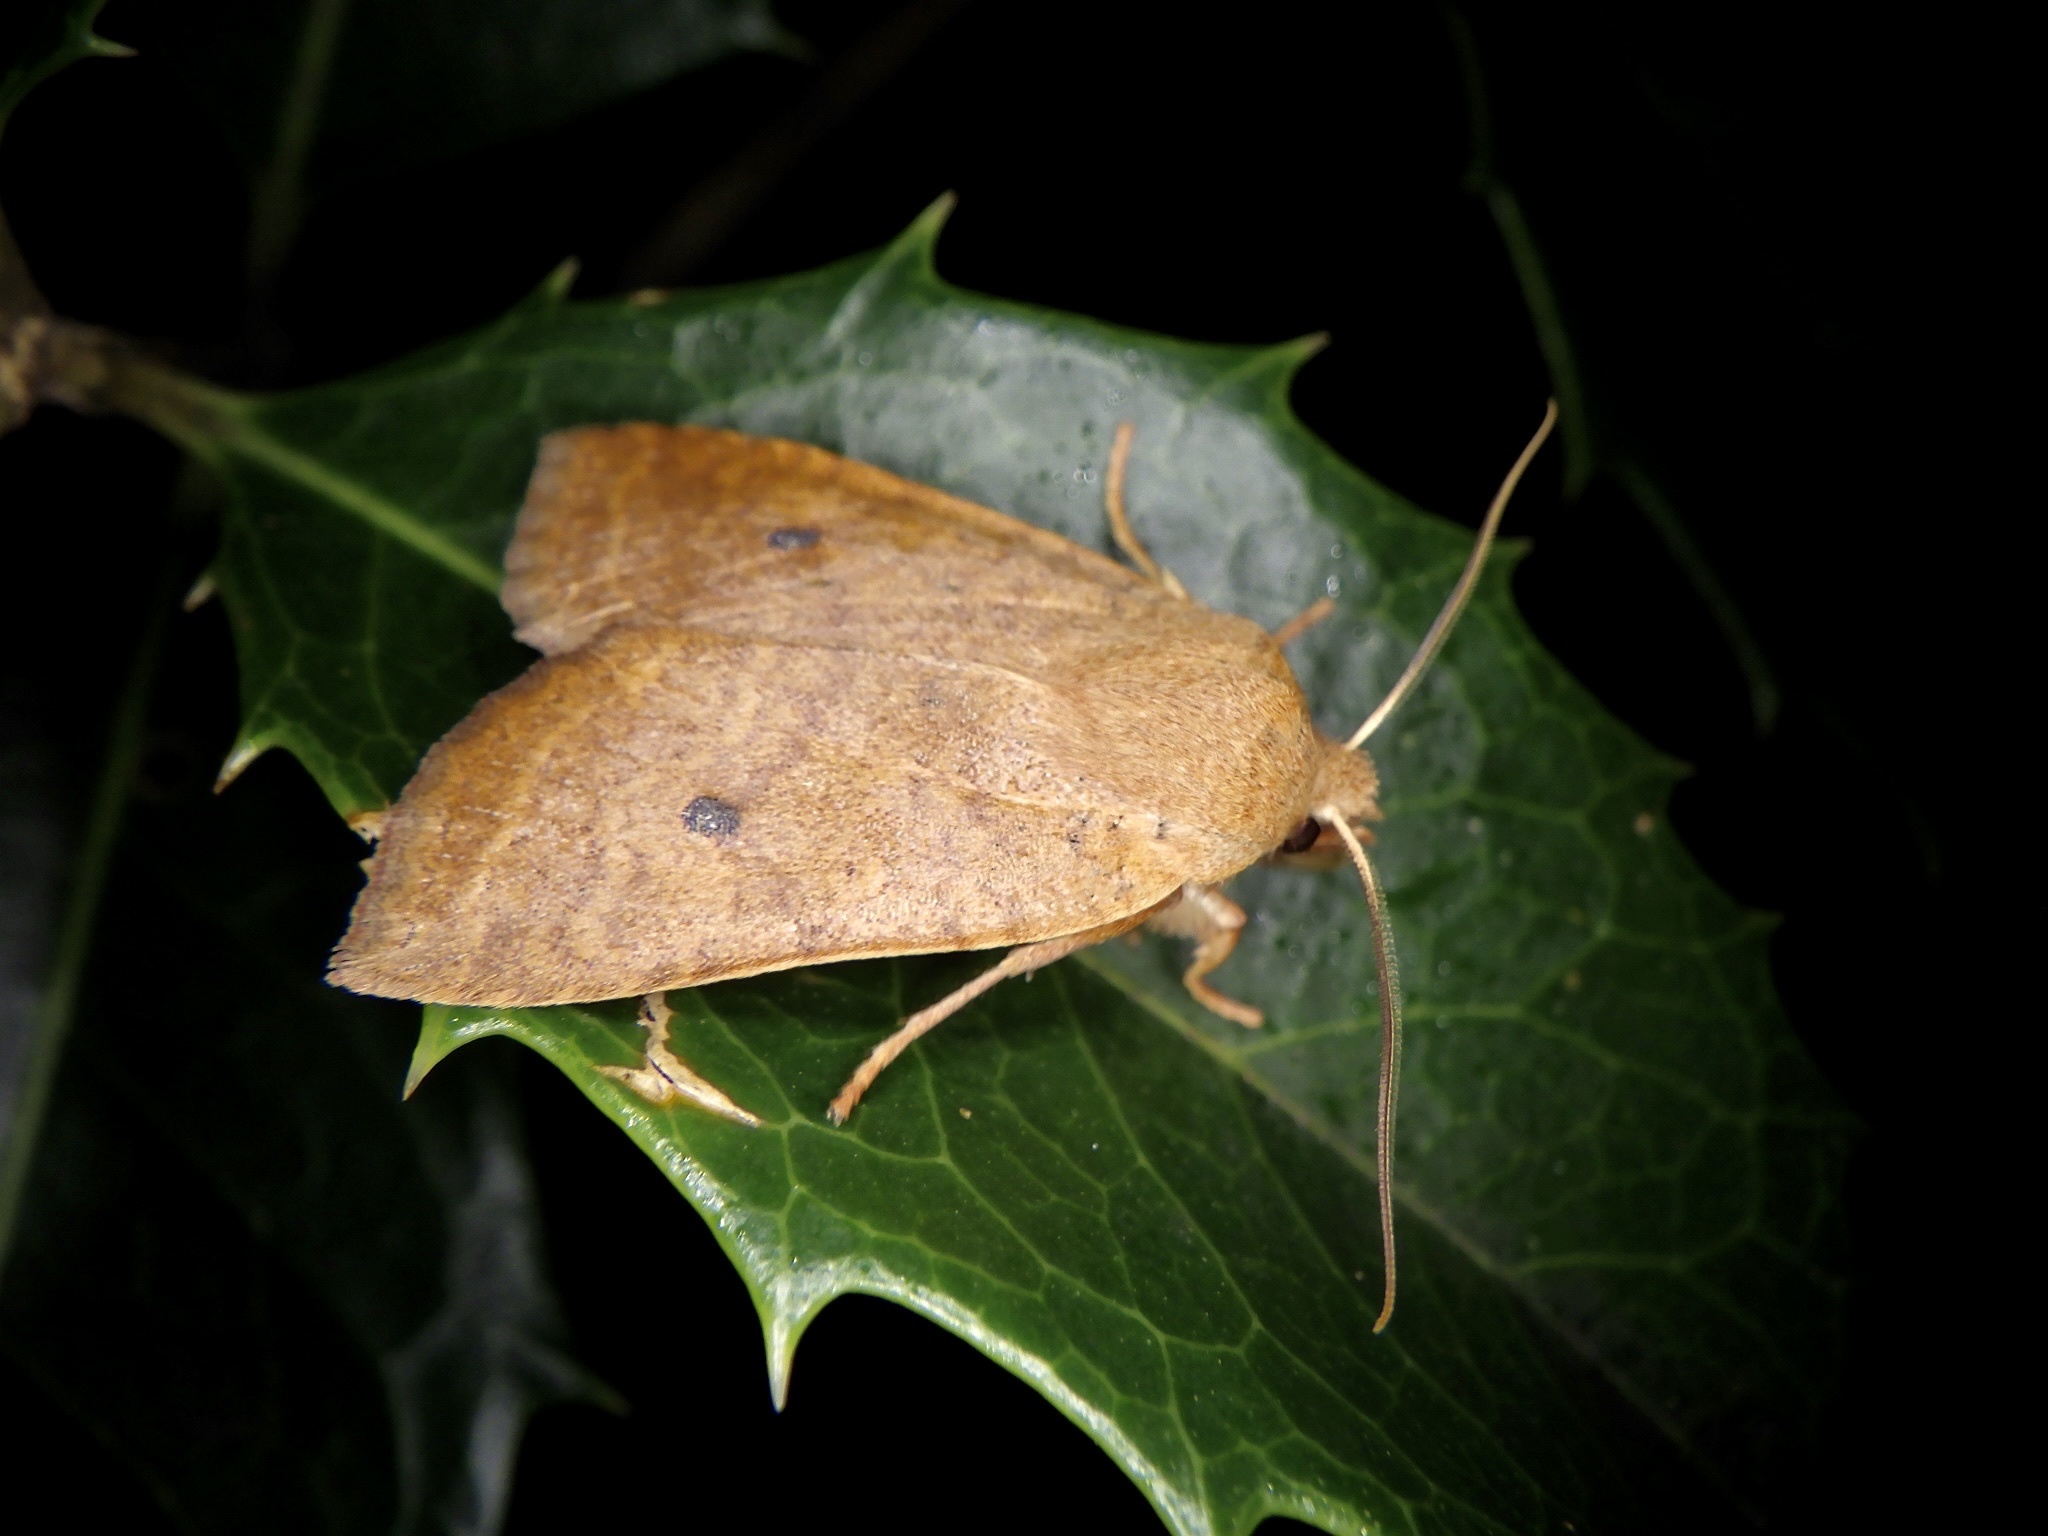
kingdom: Animalia
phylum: Arthropoda
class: Insecta
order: Lepidoptera
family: Noctuidae
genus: Conistra
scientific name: Conistra albipuncta
